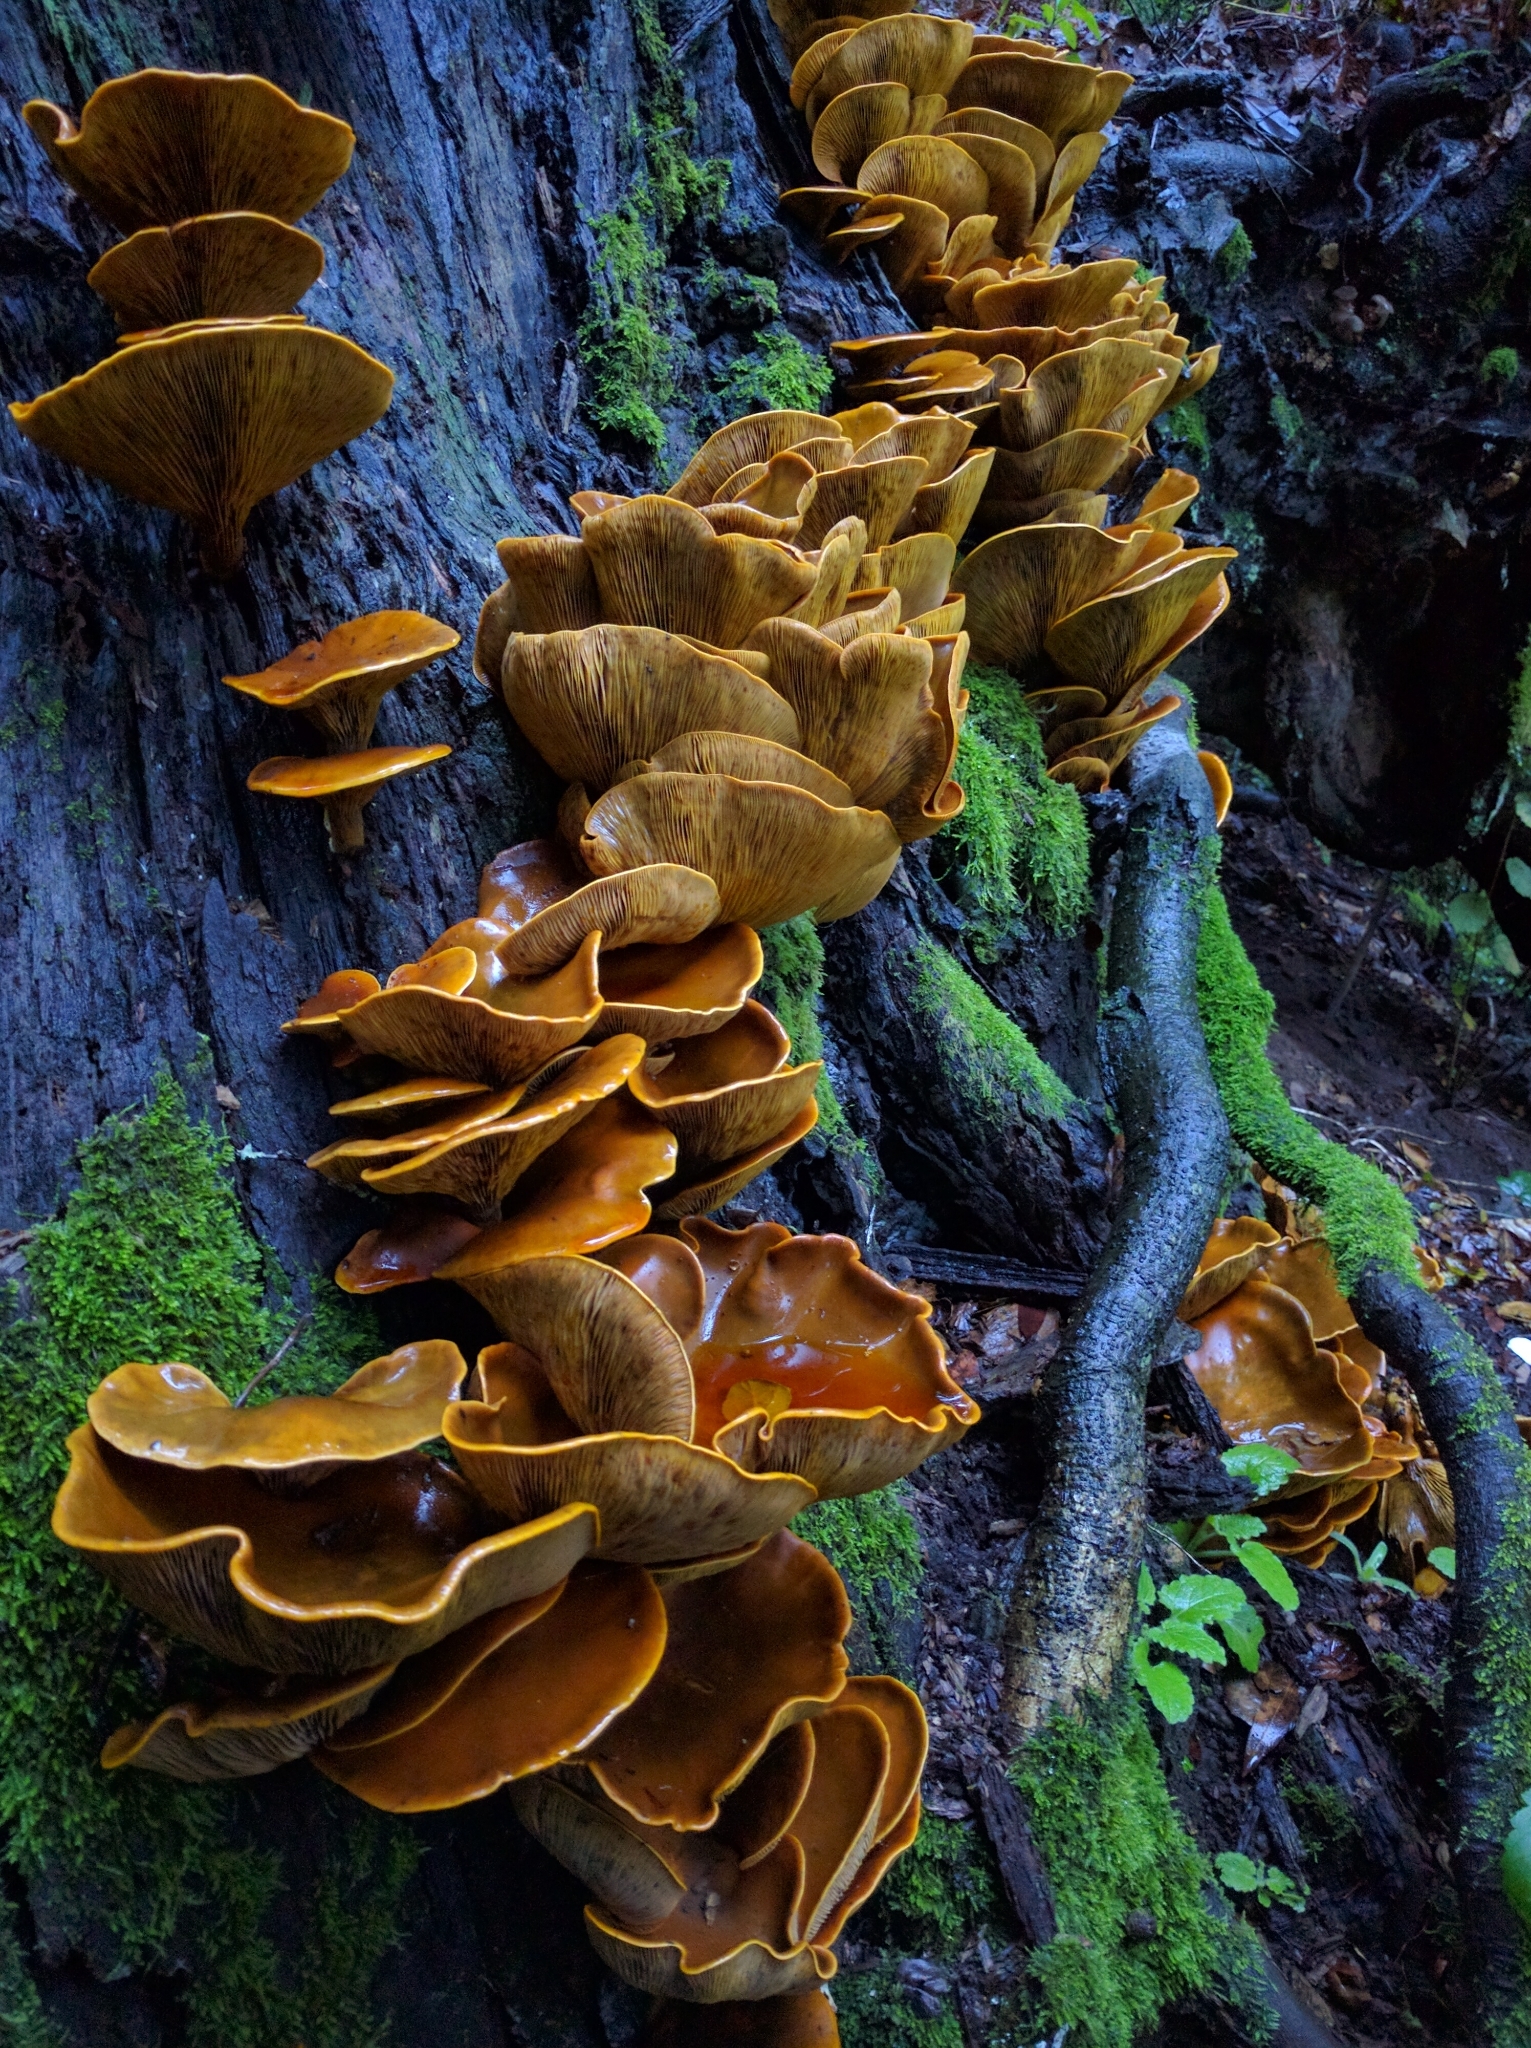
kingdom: Fungi
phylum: Basidiomycota
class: Agaricomycetes
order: Agaricales
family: Omphalotaceae
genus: Omphalotus
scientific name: Omphalotus olivascens
